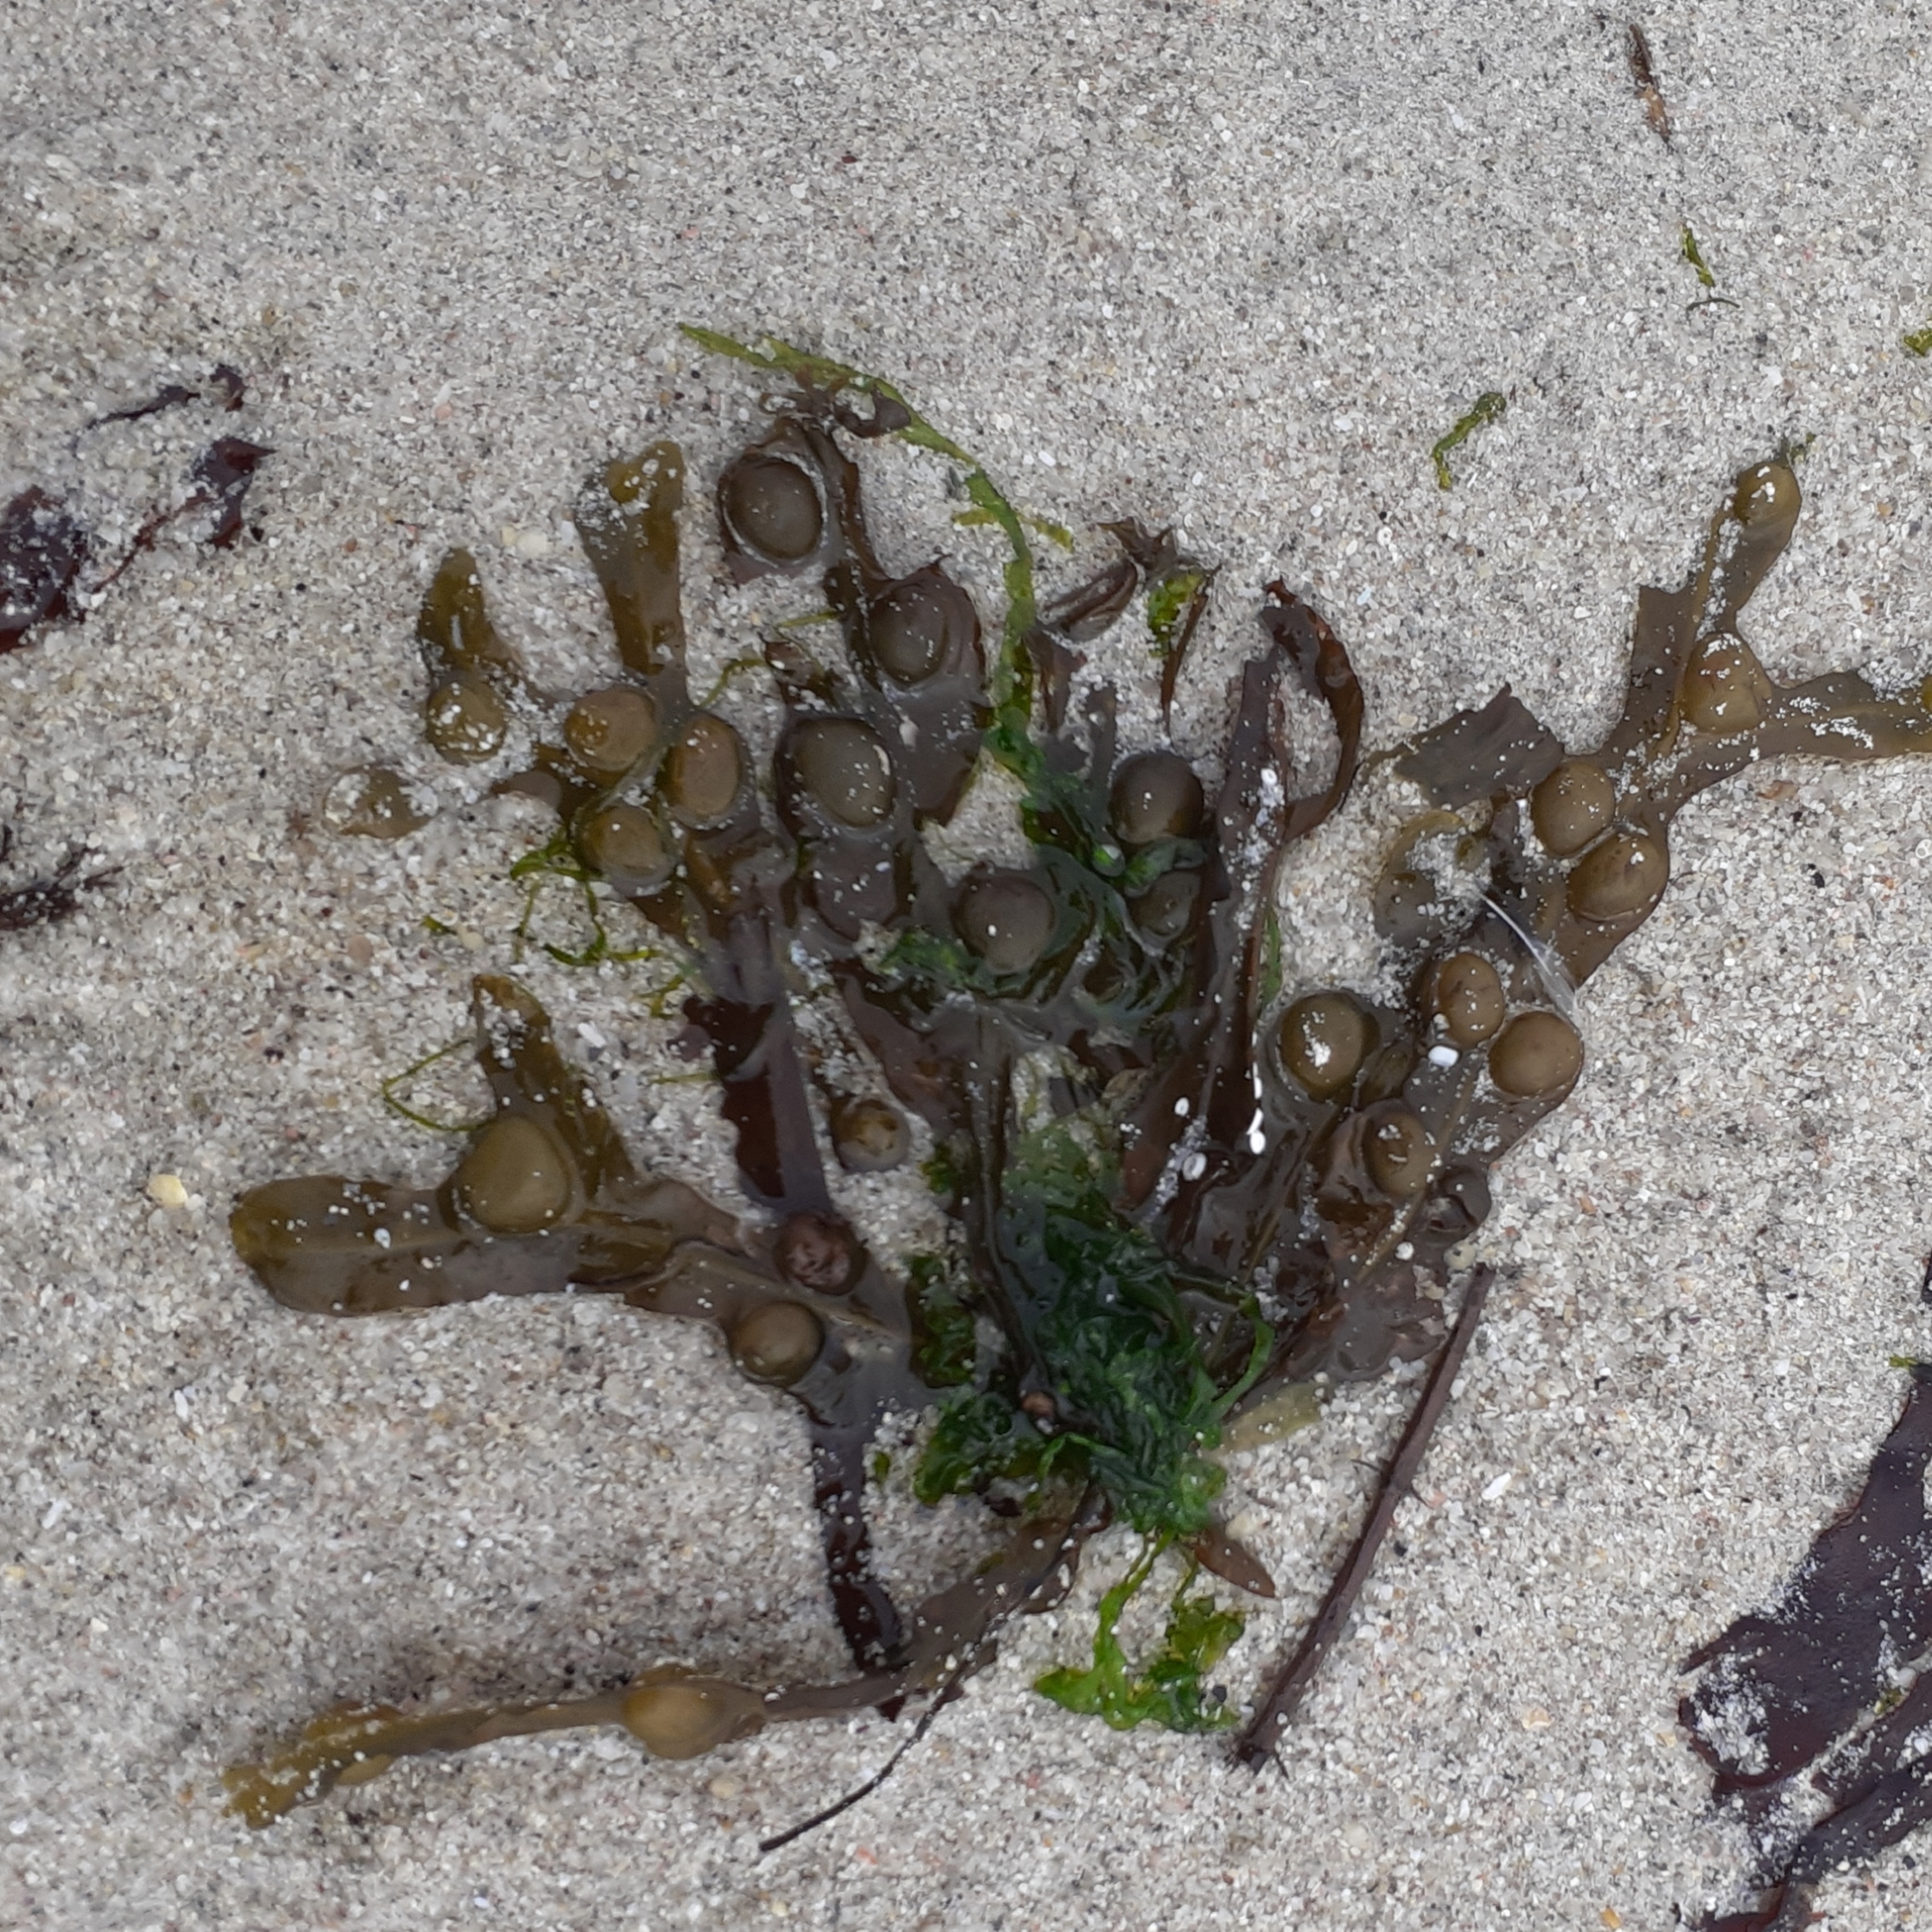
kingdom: Chromista
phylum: Ochrophyta
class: Phaeophyceae
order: Fucales
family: Fucaceae
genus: Fucus
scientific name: Fucus vesiculosus
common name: Bladder wrack
